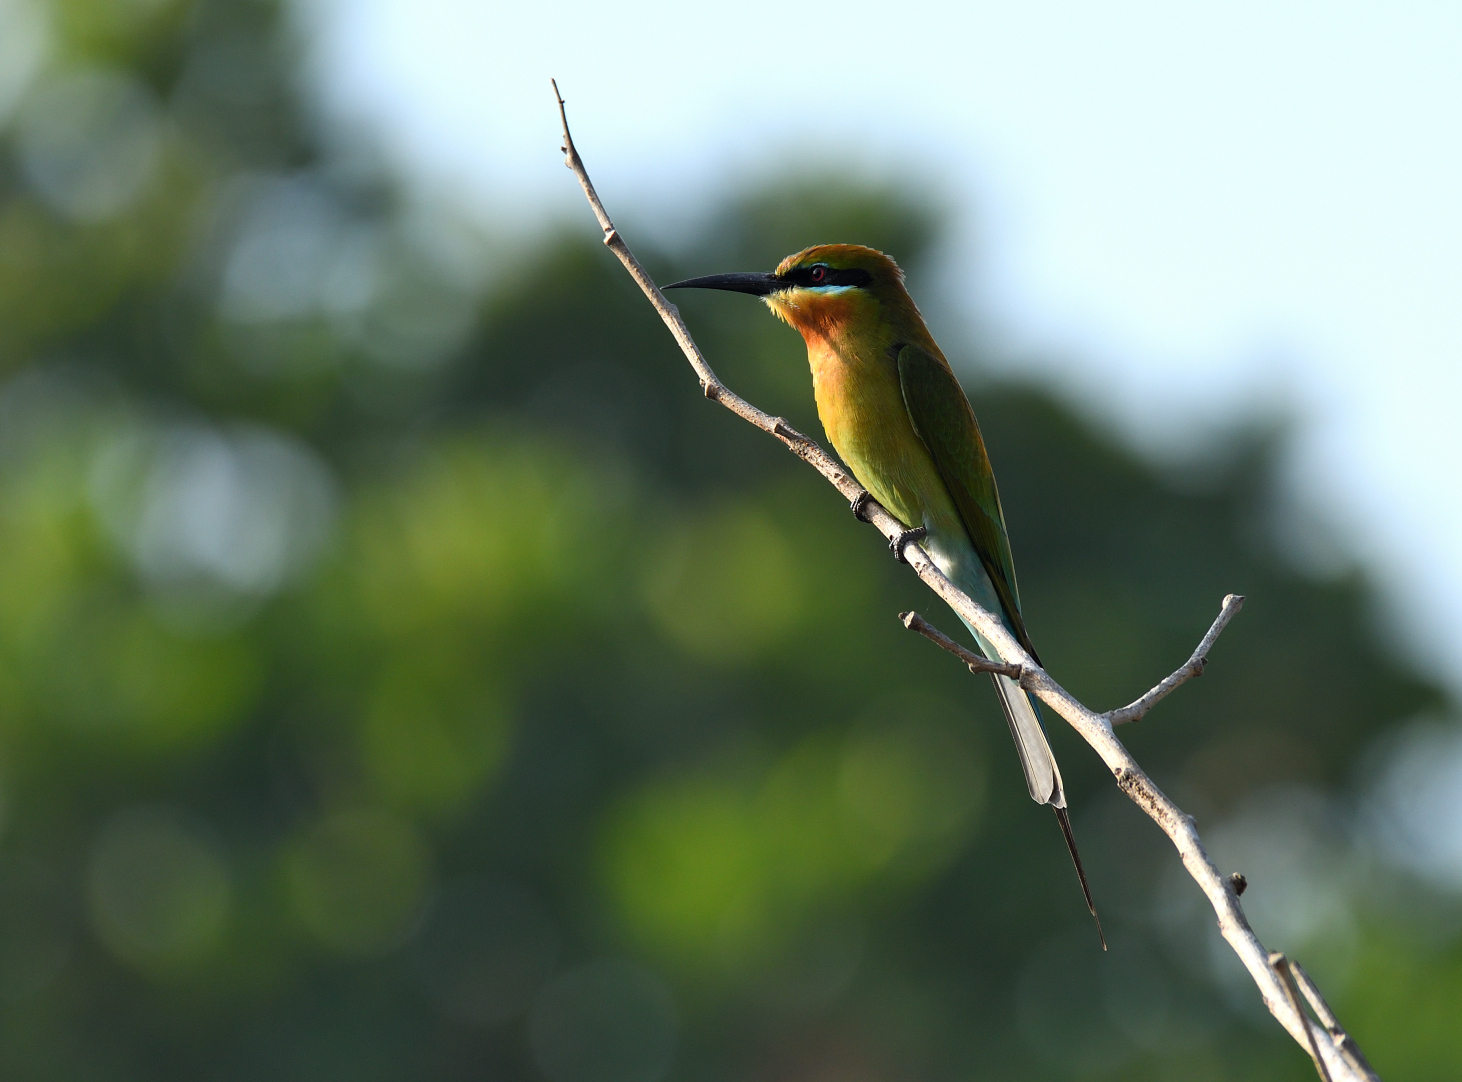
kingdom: Animalia
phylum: Chordata
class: Aves
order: Coraciiformes
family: Meropidae
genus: Merops
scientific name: Merops philippinus
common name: Blue-tailed bee-eater
